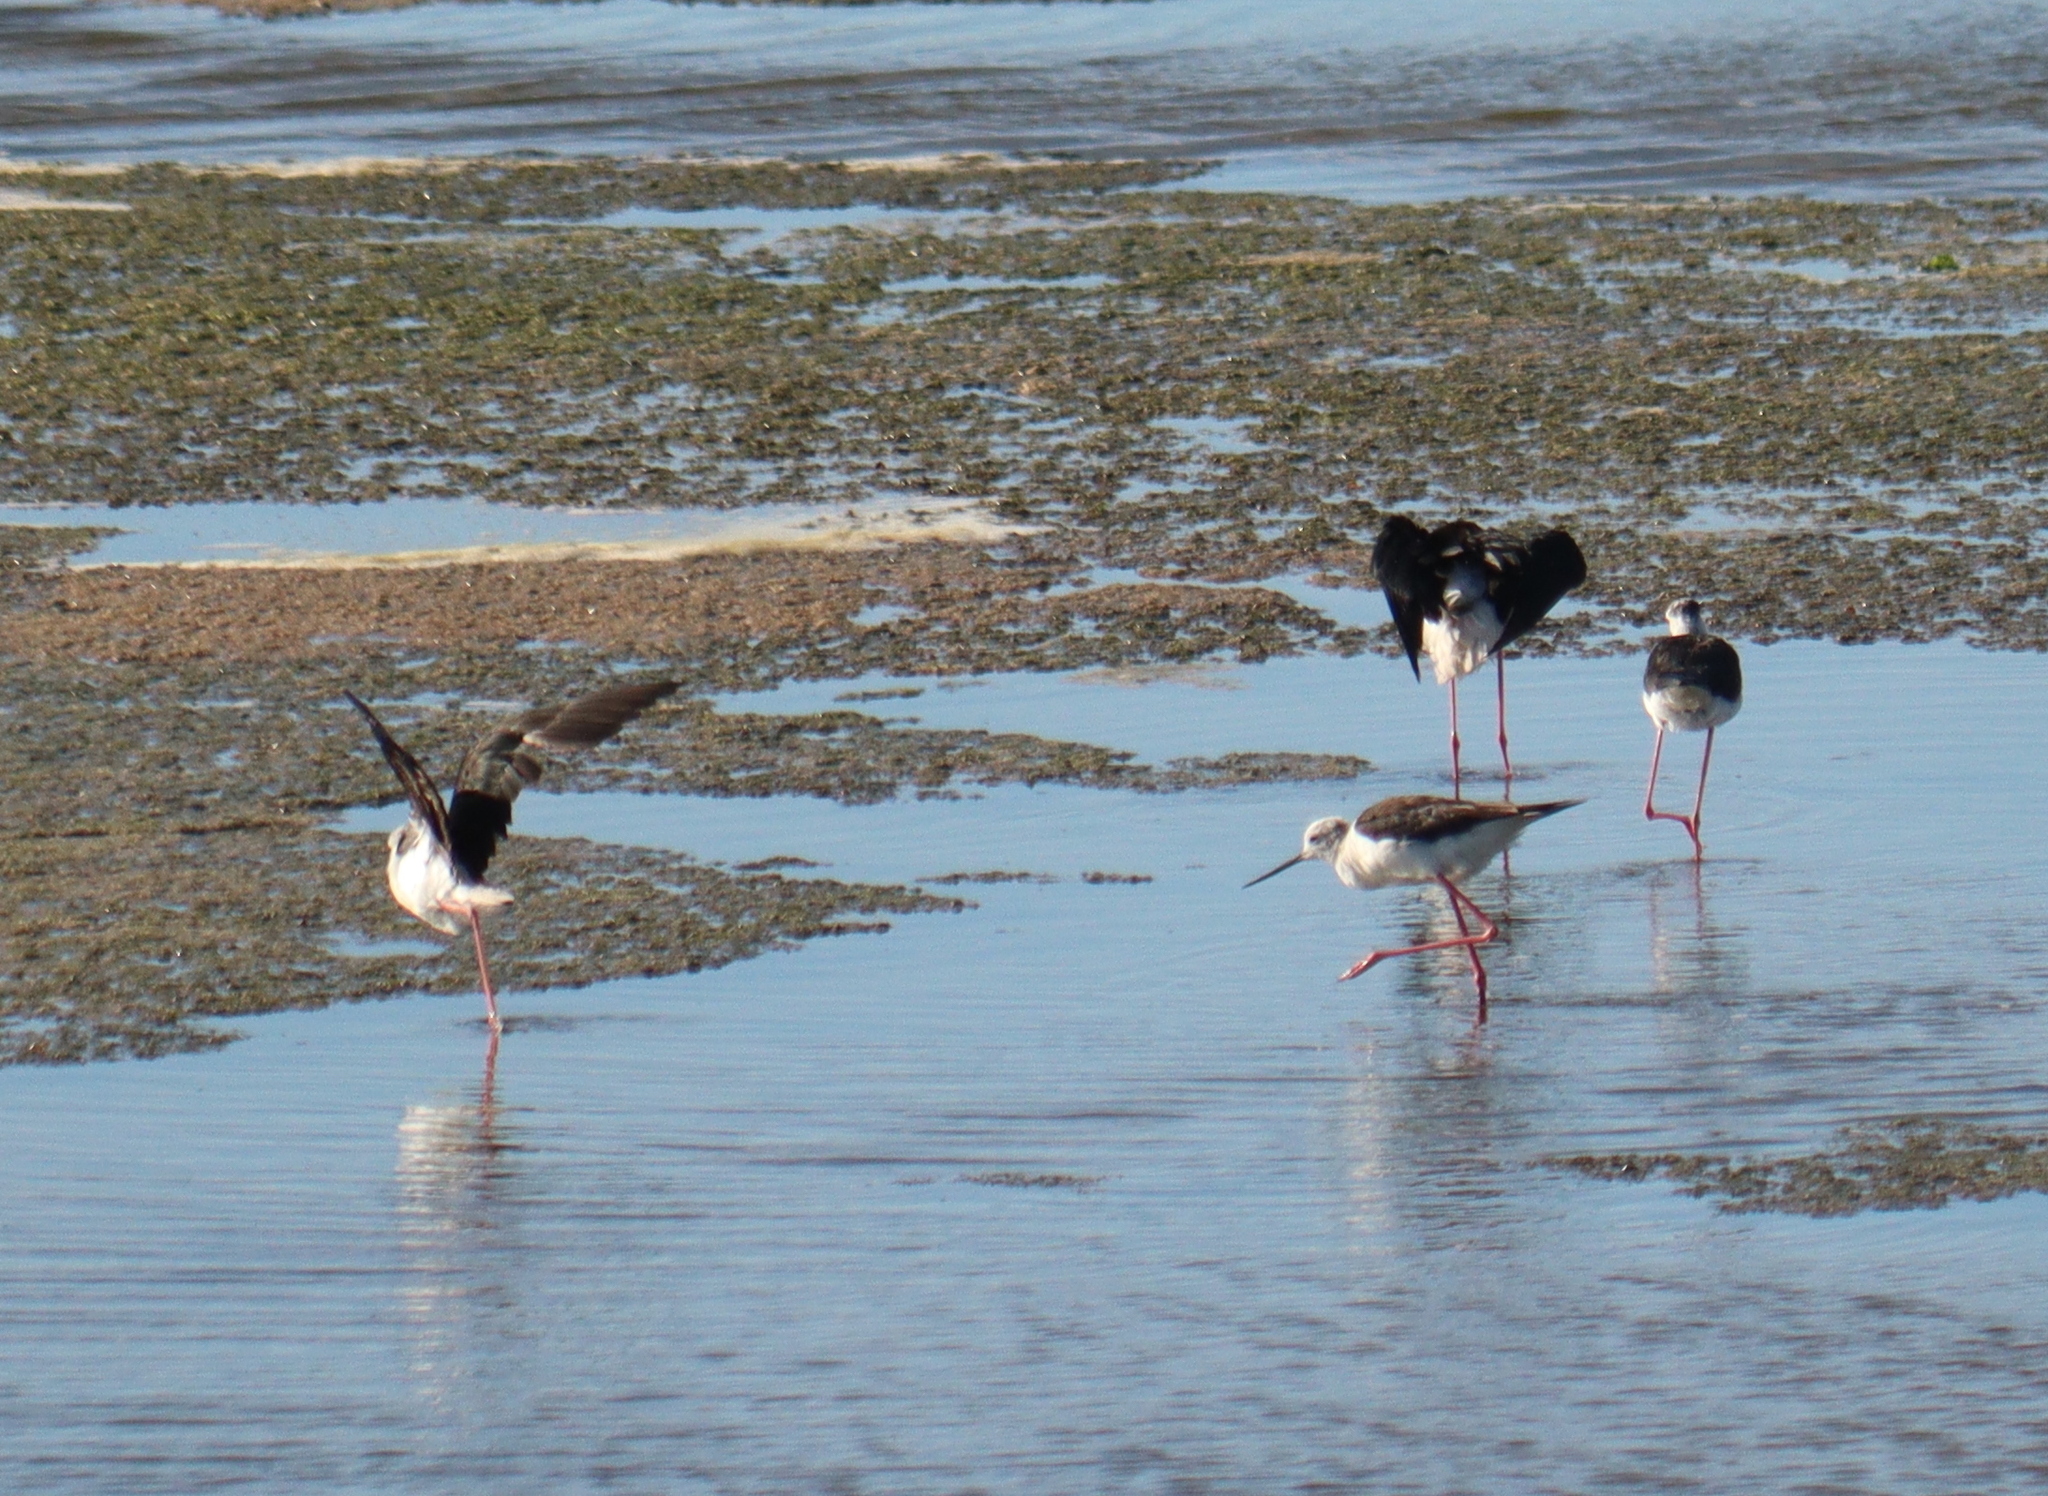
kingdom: Animalia
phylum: Chordata
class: Aves
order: Charadriiformes
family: Recurvirostridae
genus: Himantopus
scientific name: Himantopus himantopus
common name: Black-winged stilt
